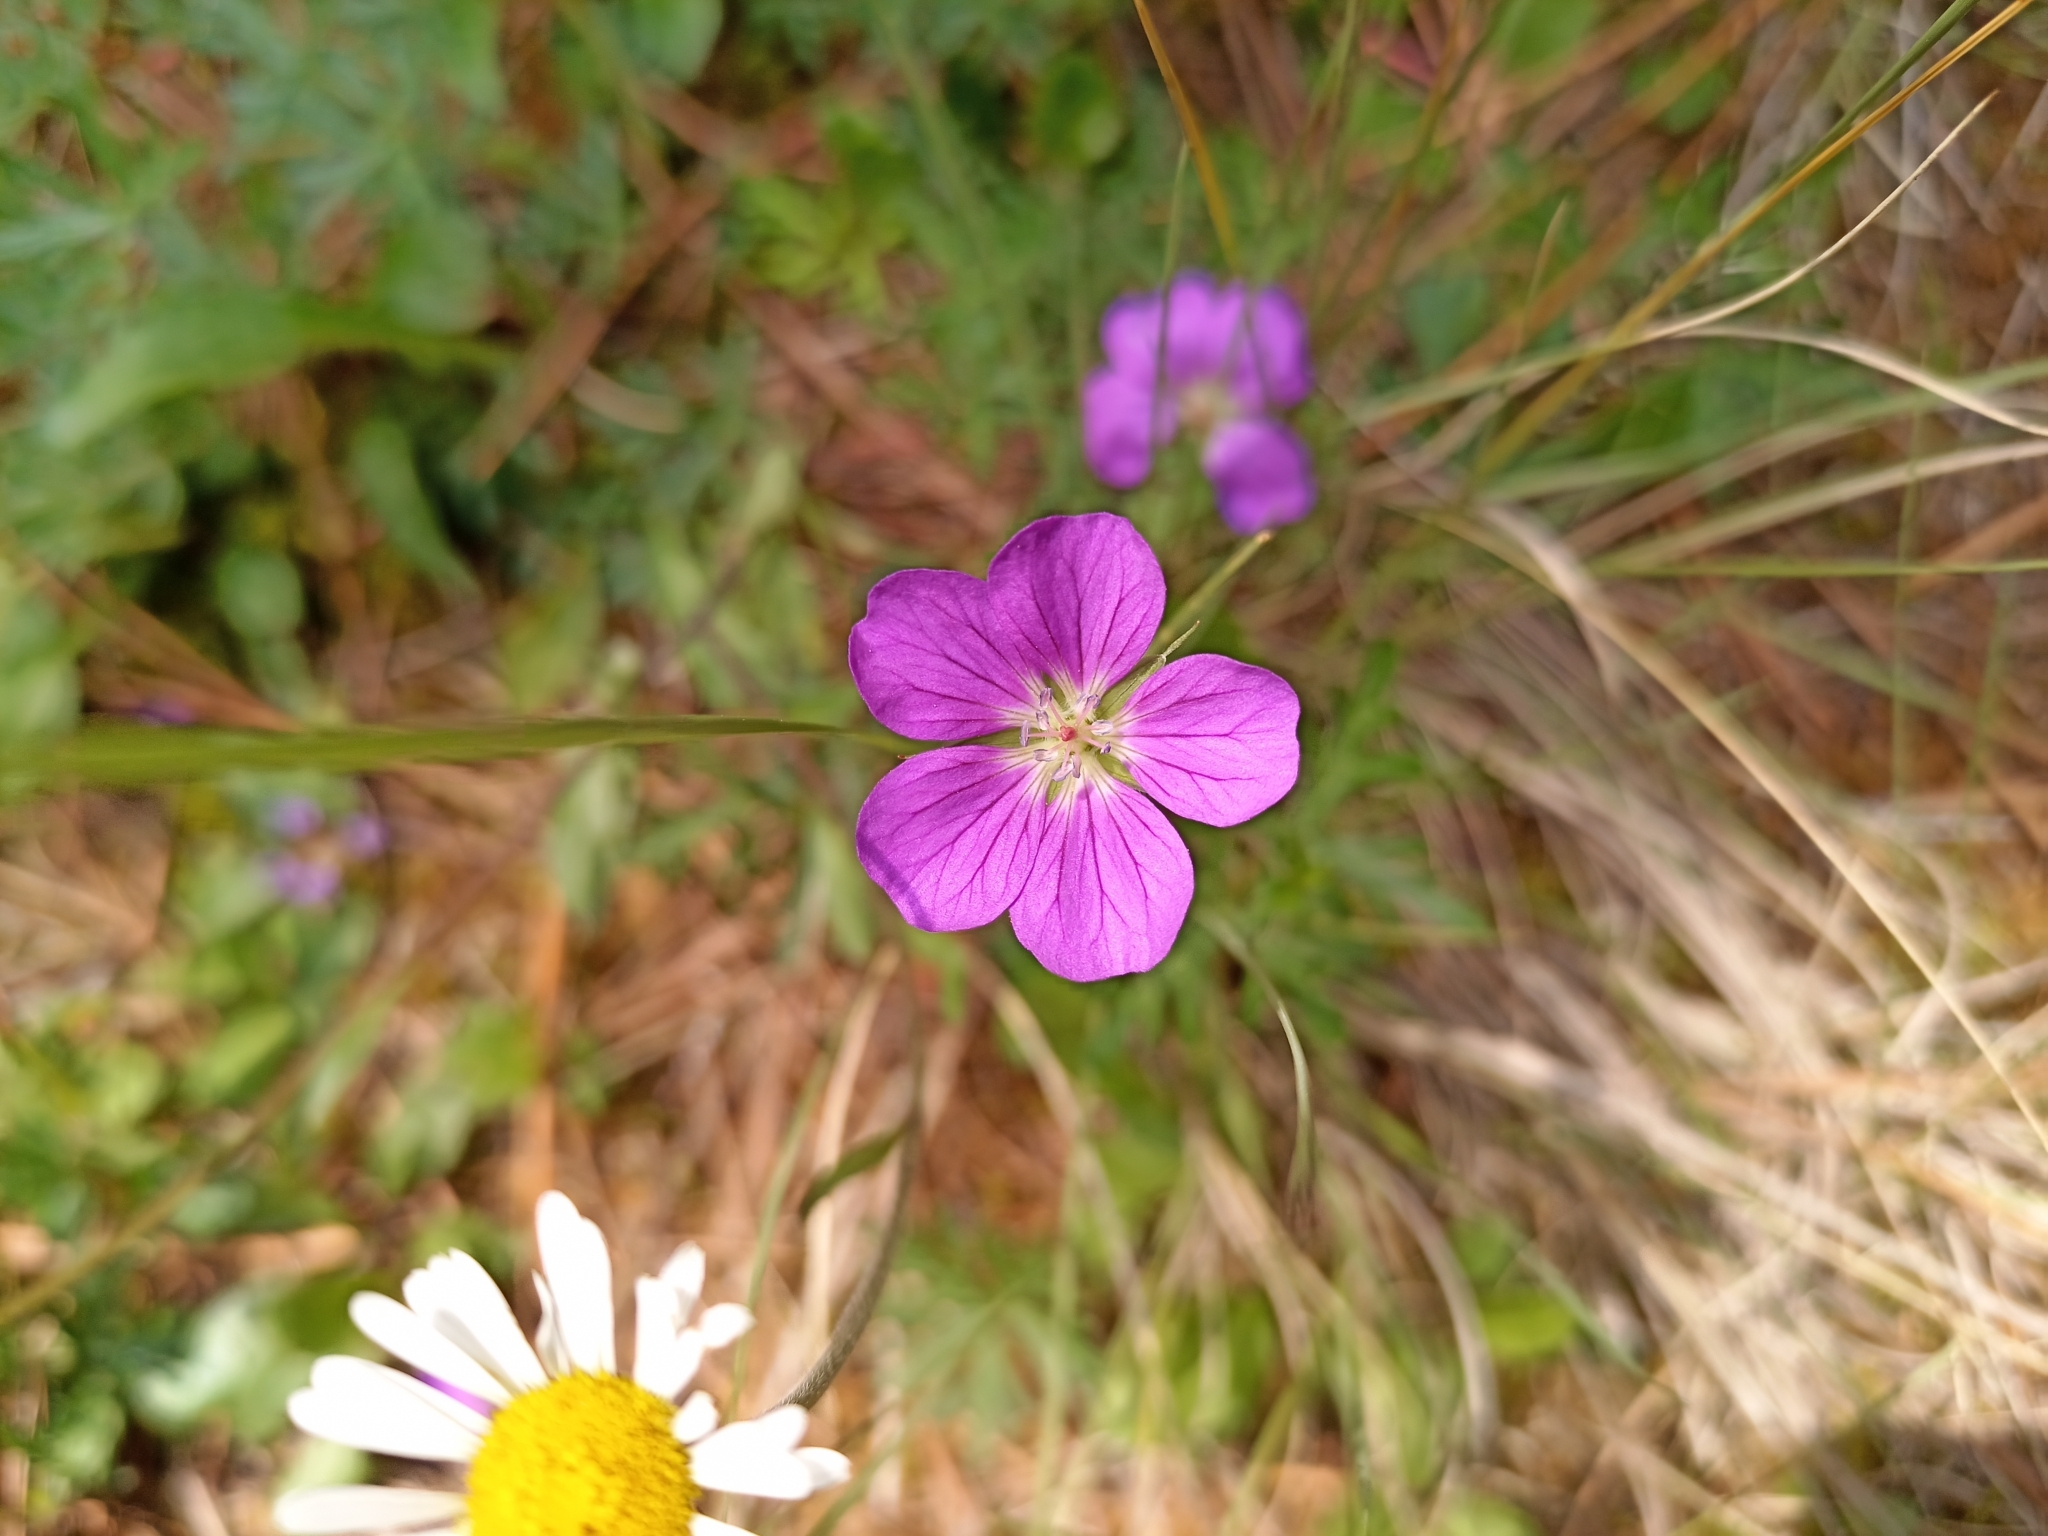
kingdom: Plantae
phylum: Tracheophyta
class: Magnoliopsida
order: Geraniales
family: Geraniaceae
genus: Geranium
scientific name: Geranium potentillifolium
